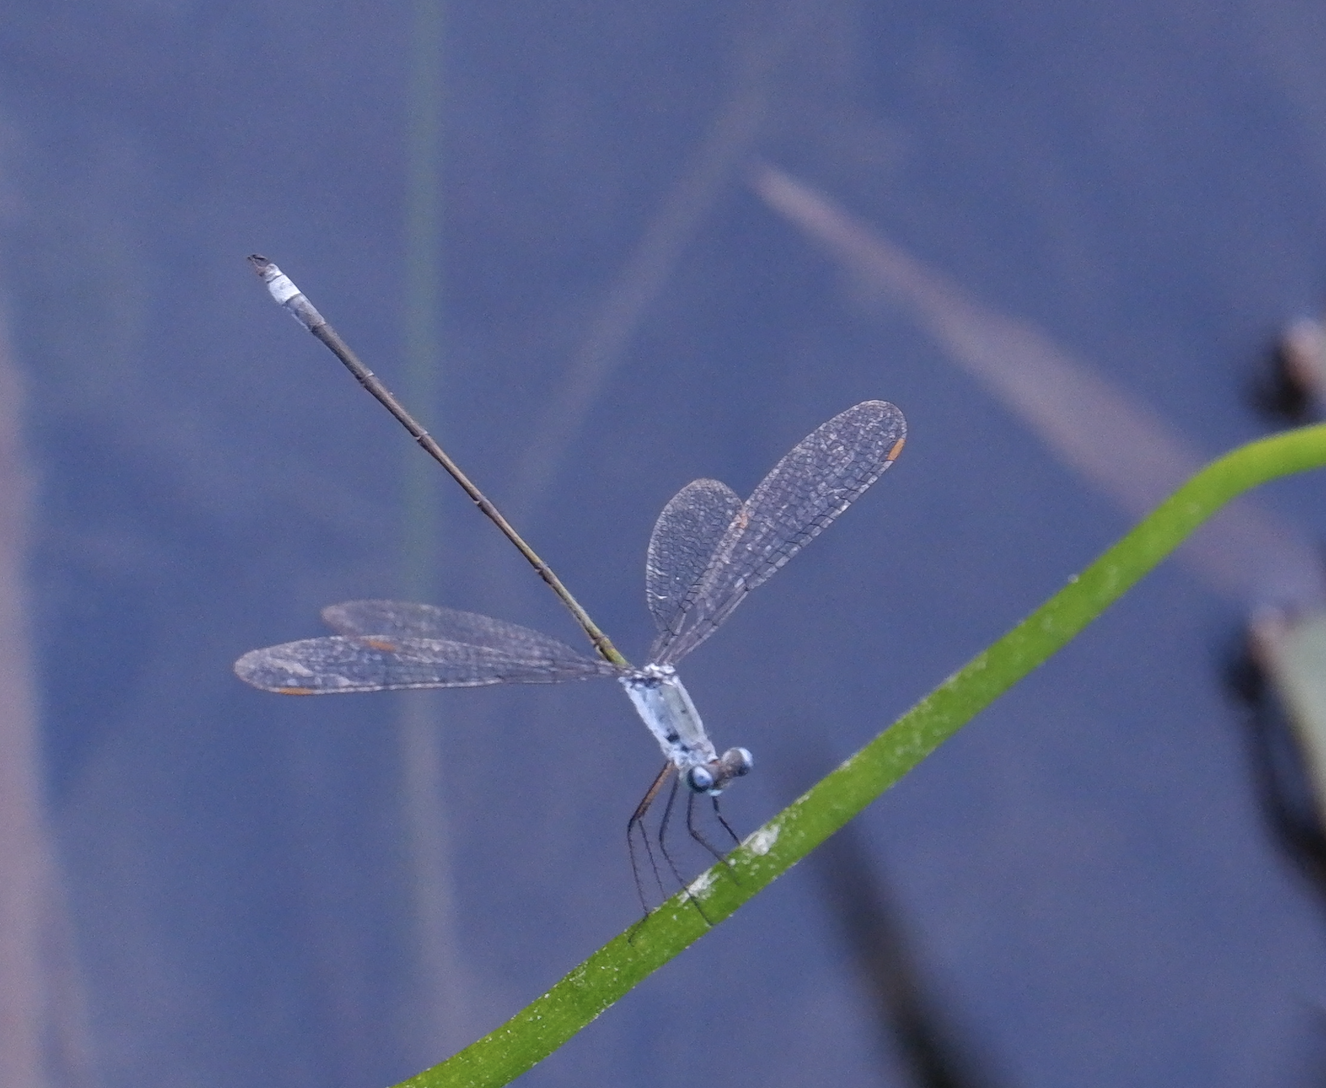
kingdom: Animalia
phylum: Arthropoda
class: Insecta
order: Odonata
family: Lestidae
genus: Lestes
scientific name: Lestes vigilax
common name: Swamp spreadwing
